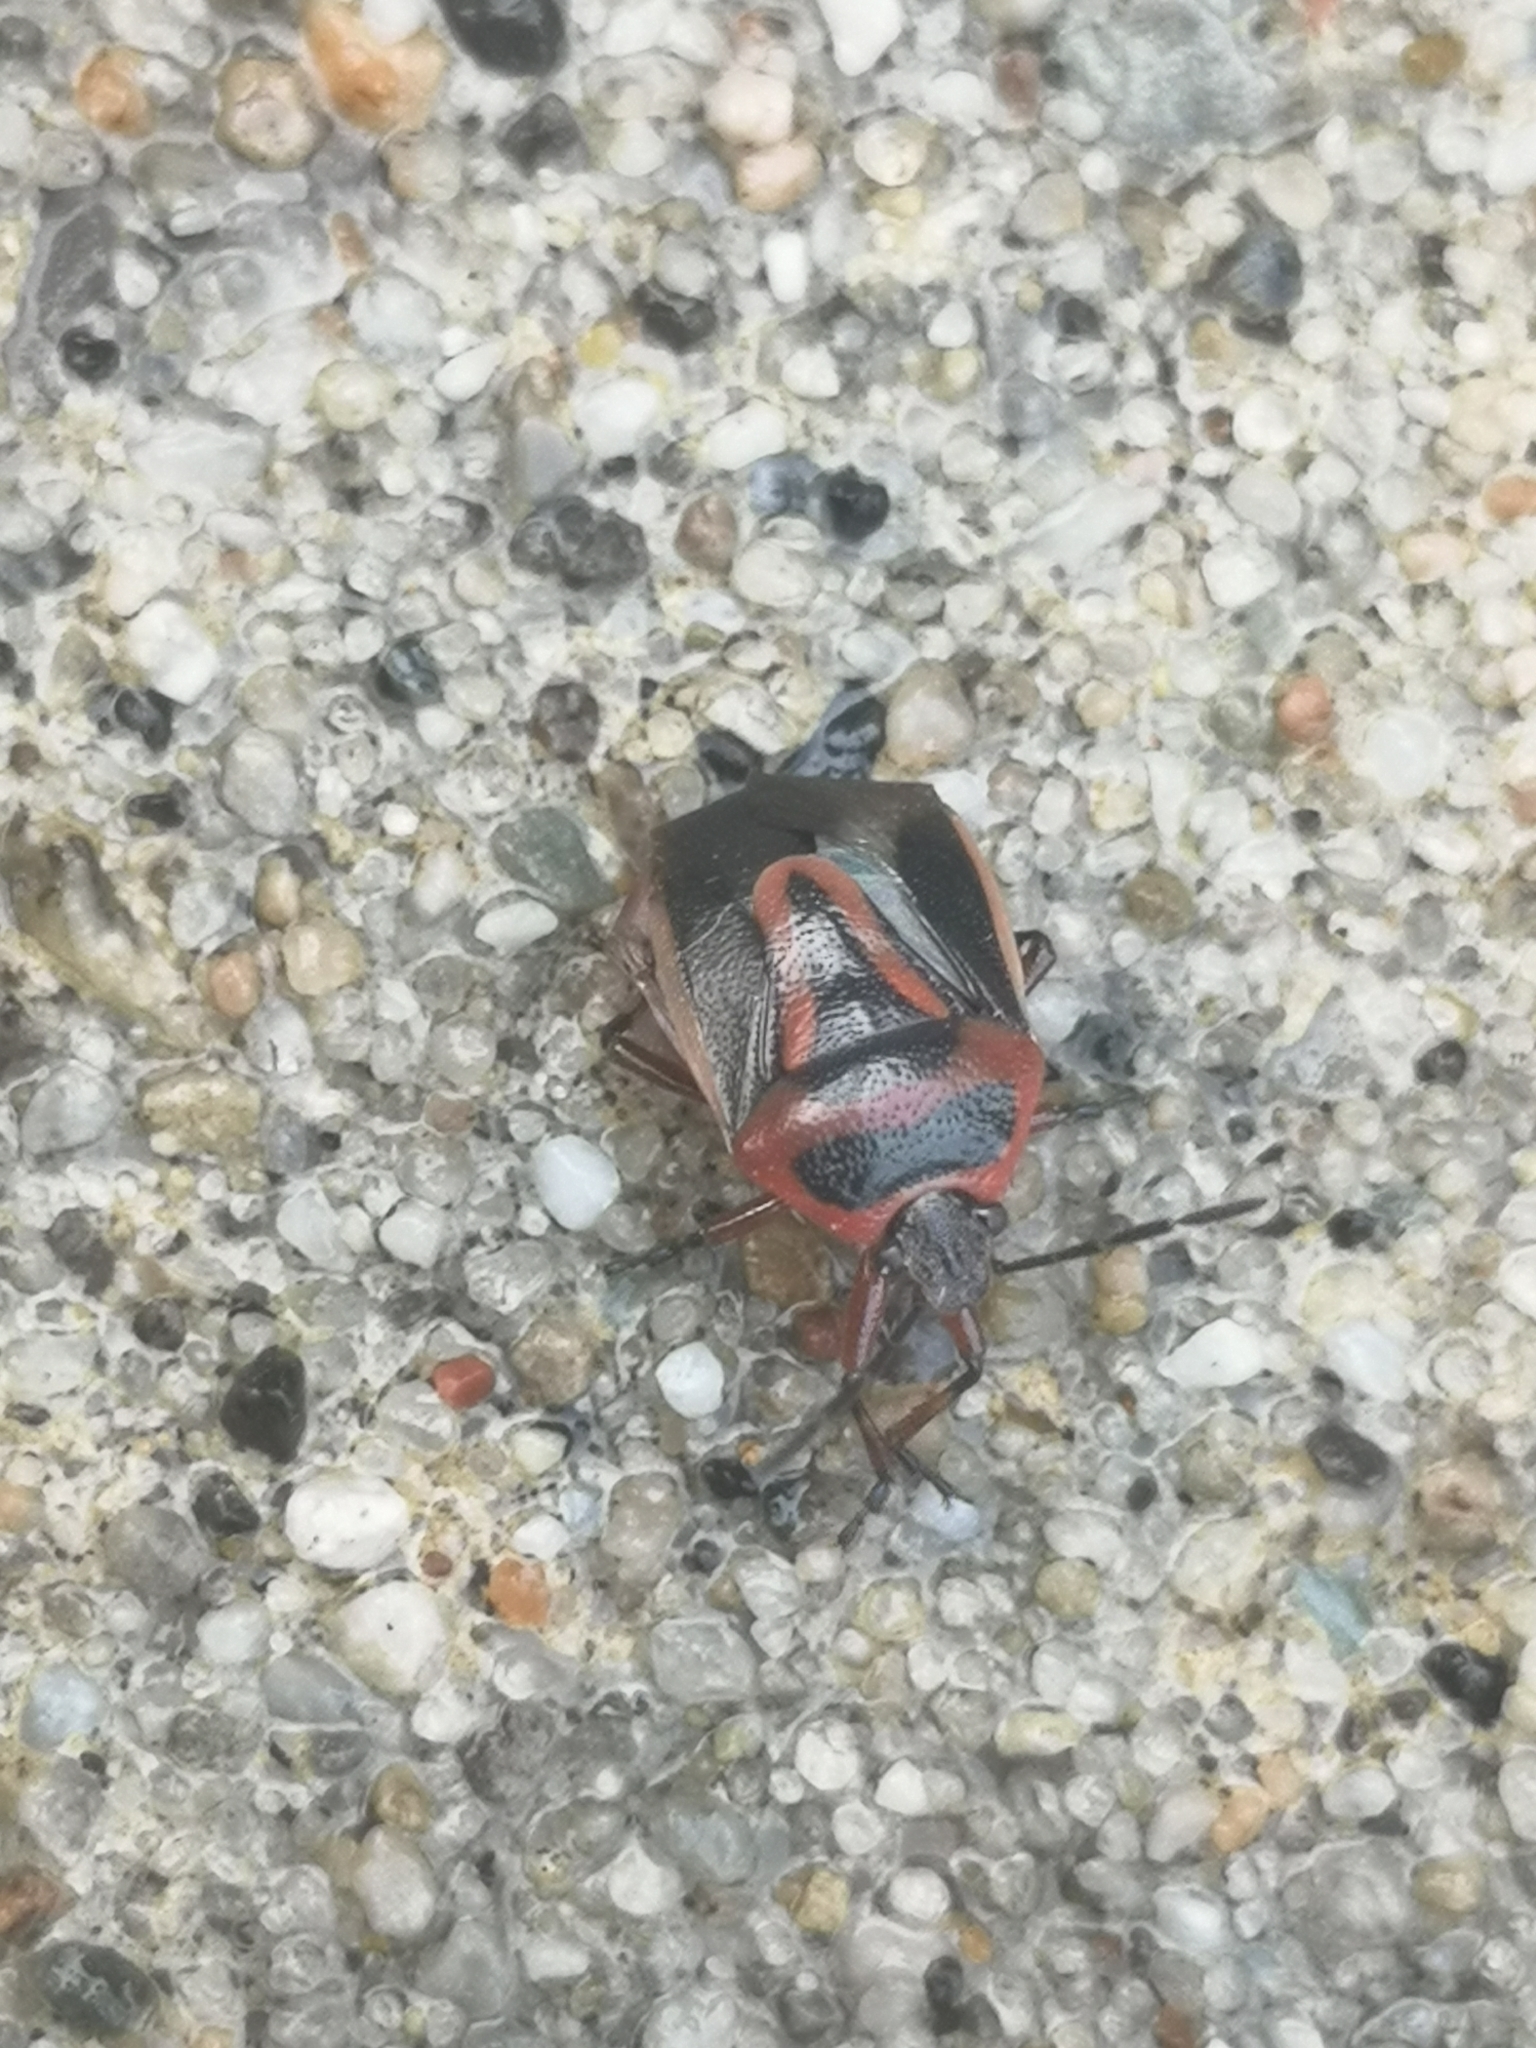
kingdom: Animalia
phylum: Arthropoda
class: Insecta
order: Hemiptera
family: Pentatomidae
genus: Perillus
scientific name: Perillus bioculatus
